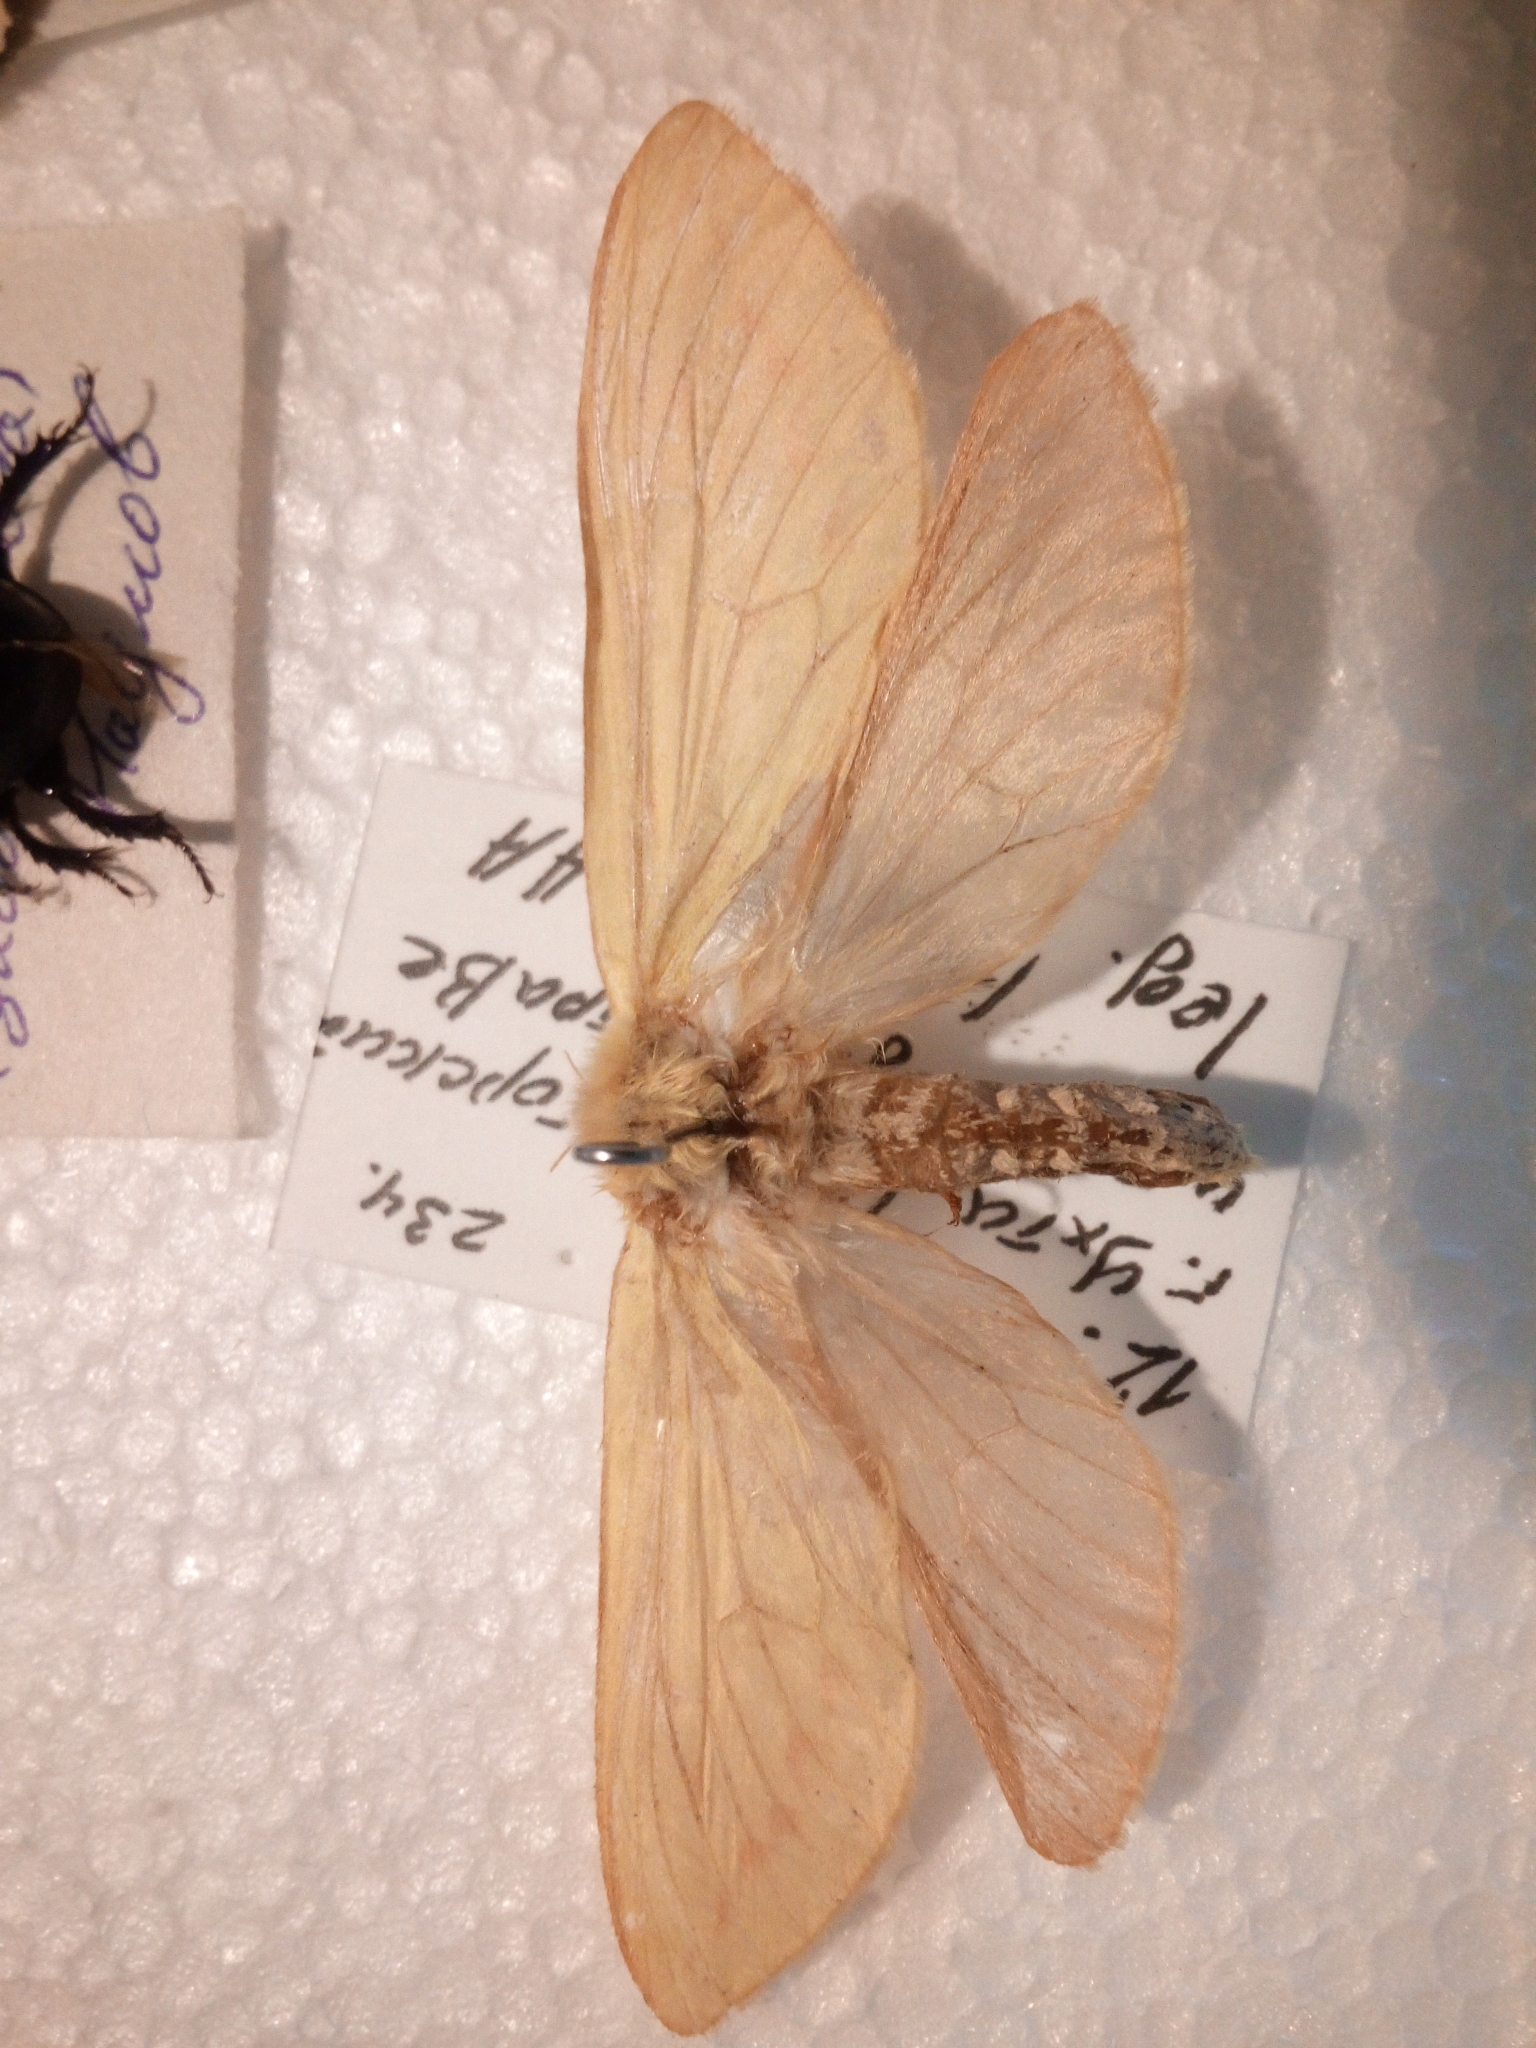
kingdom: Animalia
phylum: Arthropoda
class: Insecta
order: Lepidoptera
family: Hepialidae
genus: Hepialus
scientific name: Hepialus humuli
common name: Ghost moth
